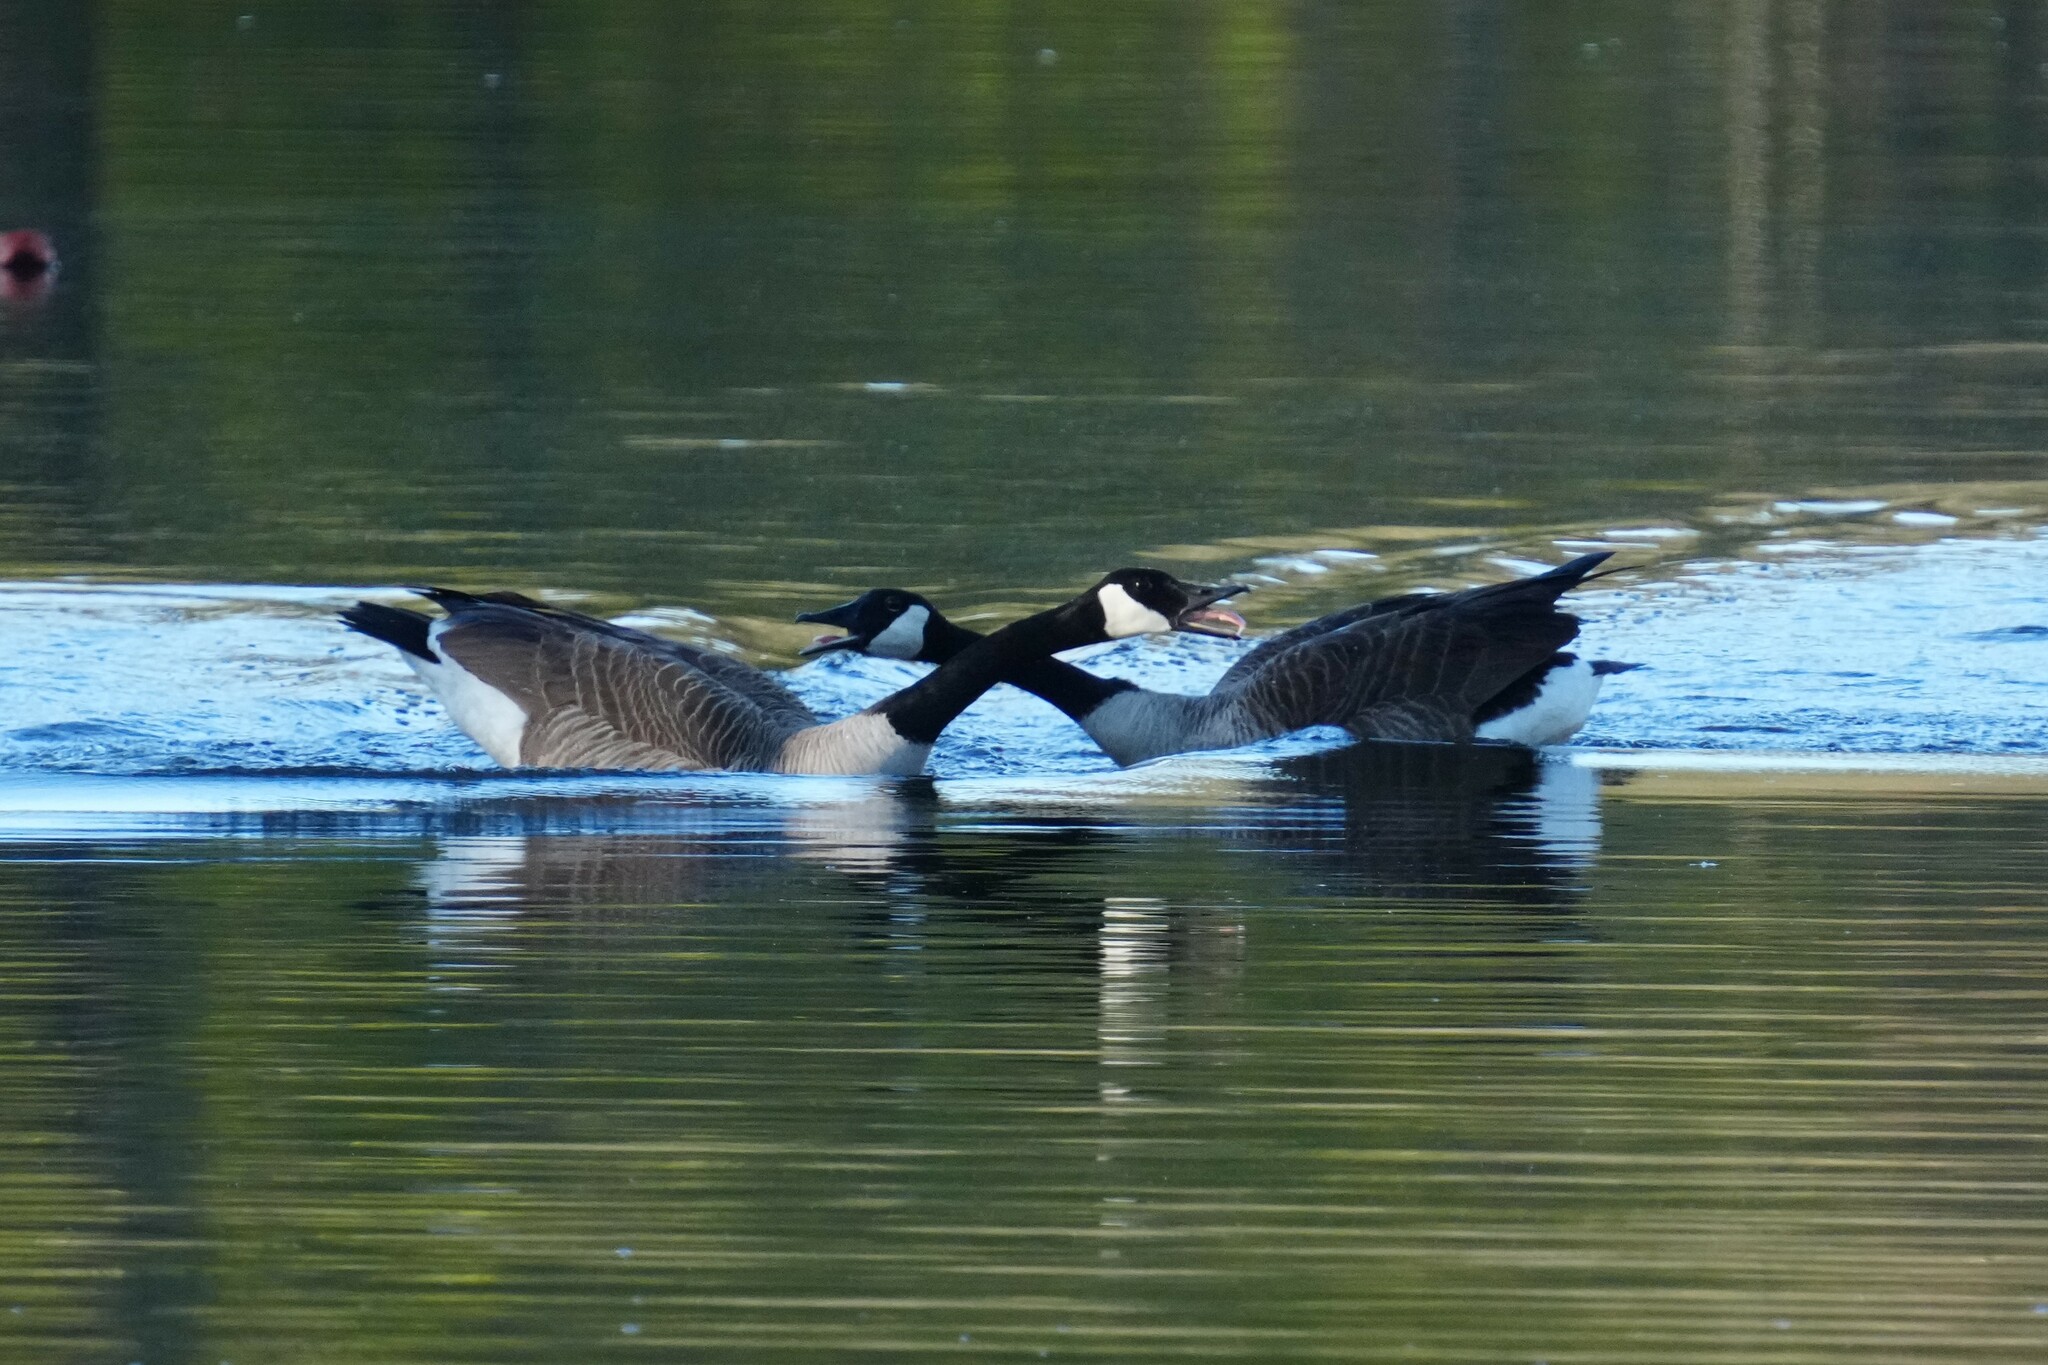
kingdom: Animalia
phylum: Chordata
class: Aves
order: Anseriformes
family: Anatidae
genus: Branta
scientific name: Branta canadensis
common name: Canada goose
